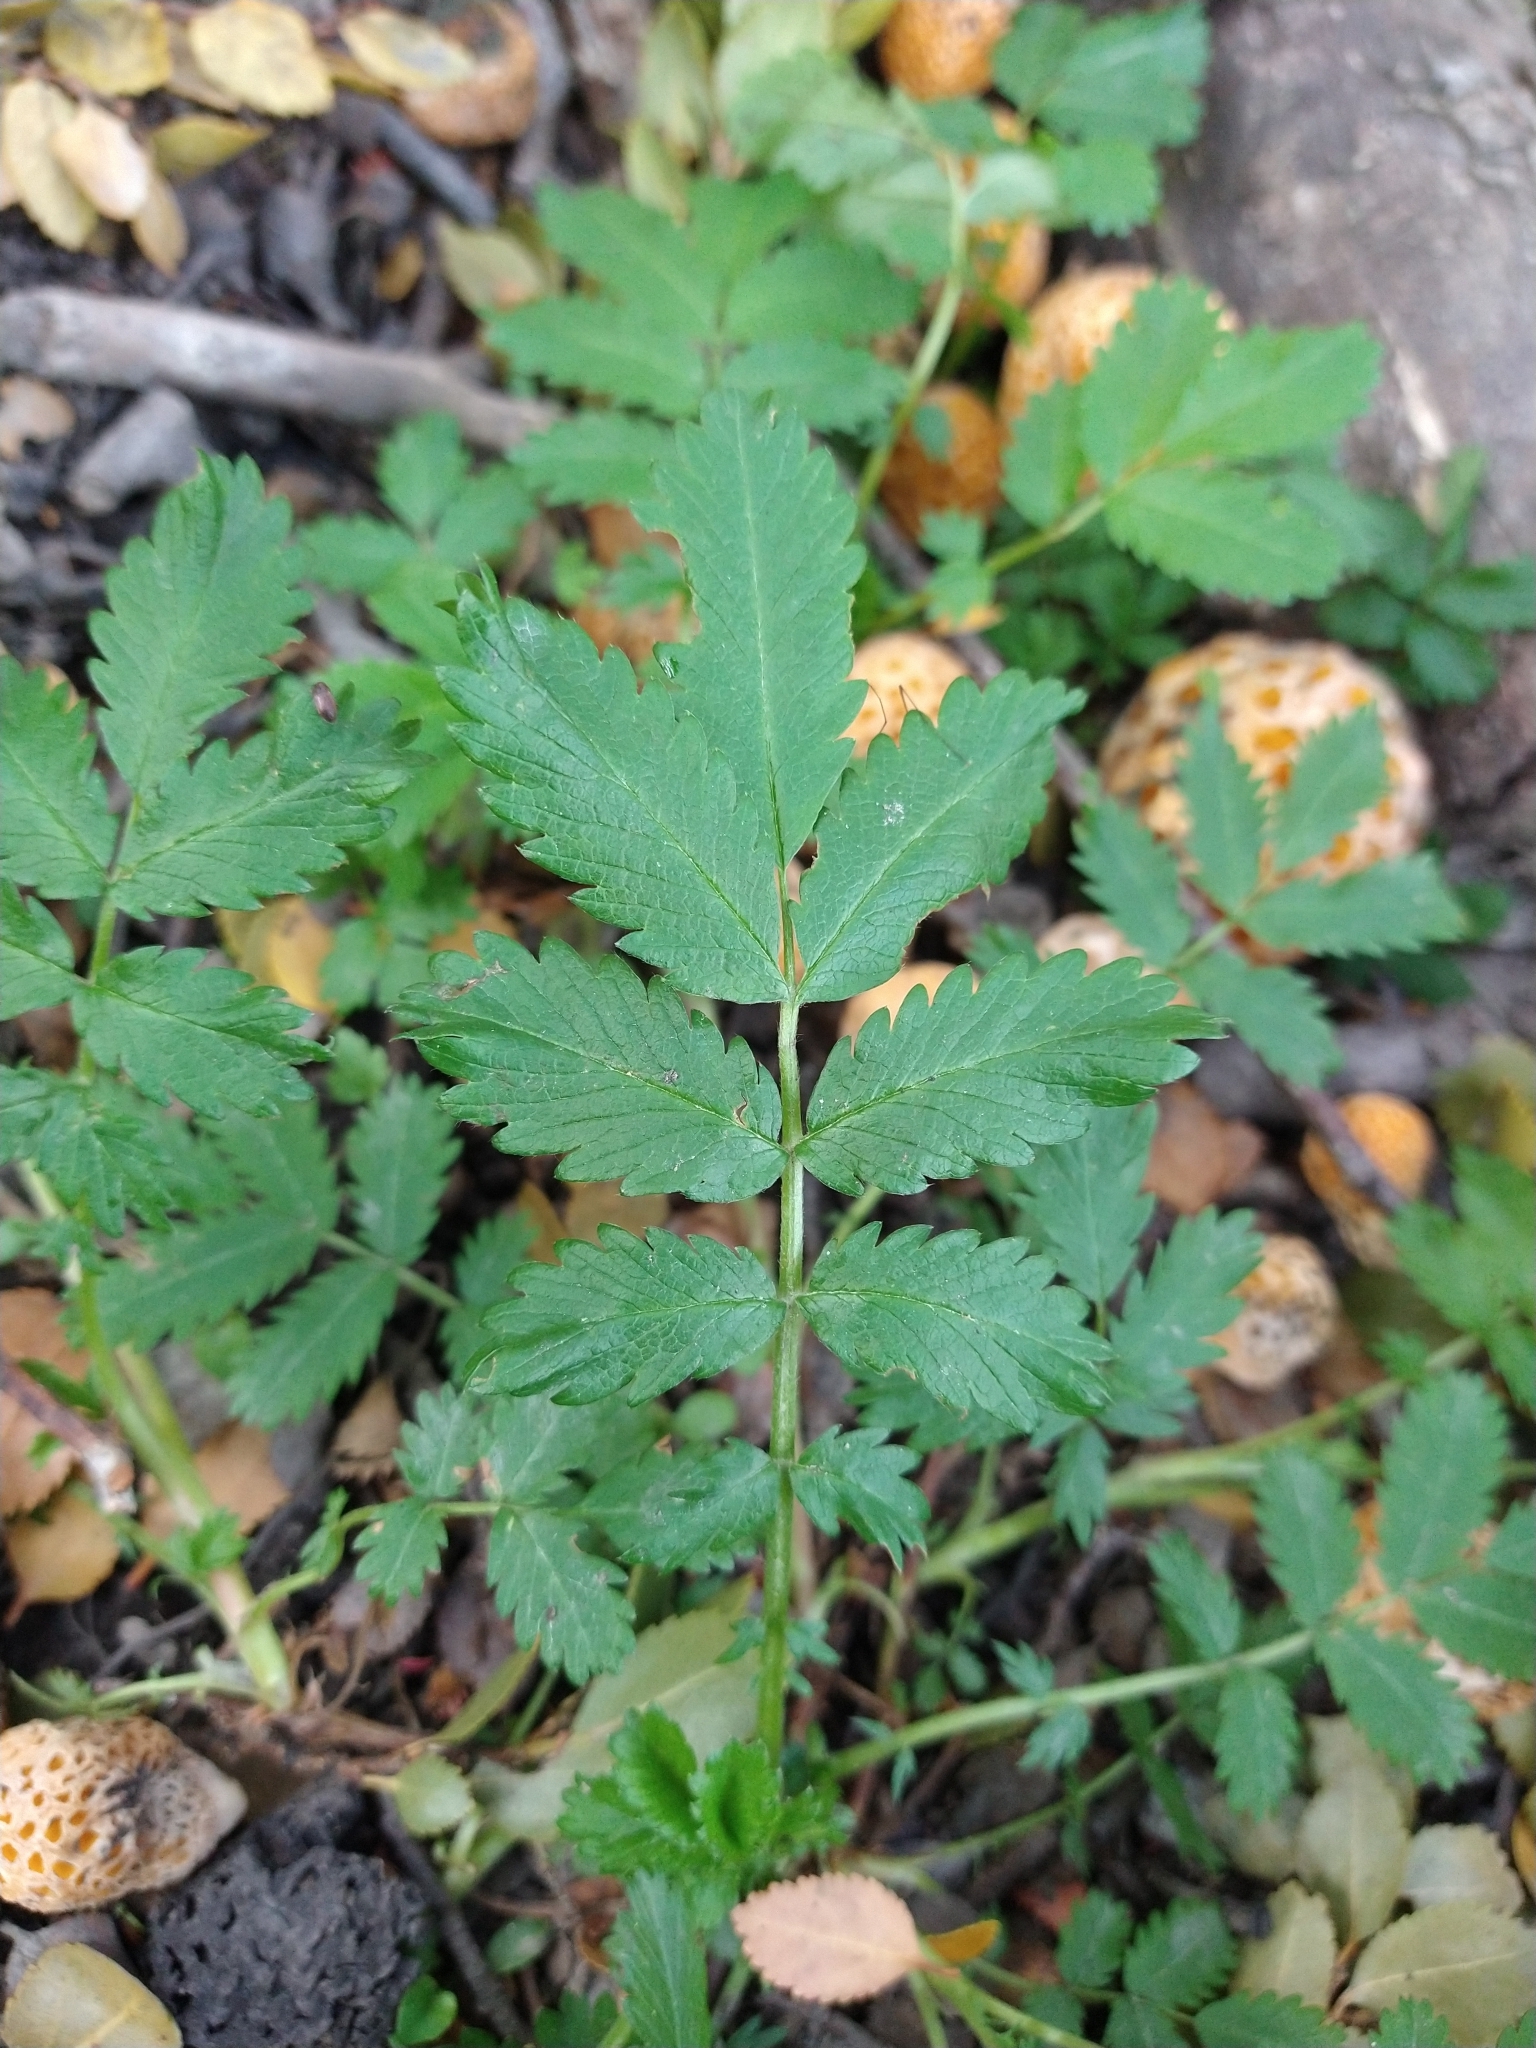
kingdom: Plantae
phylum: Tracheophyta
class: Magnoliopsida
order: Rosales
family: Rosaceae
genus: Acaena
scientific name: Acaena ovalifolia
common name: Two-spined acaena
